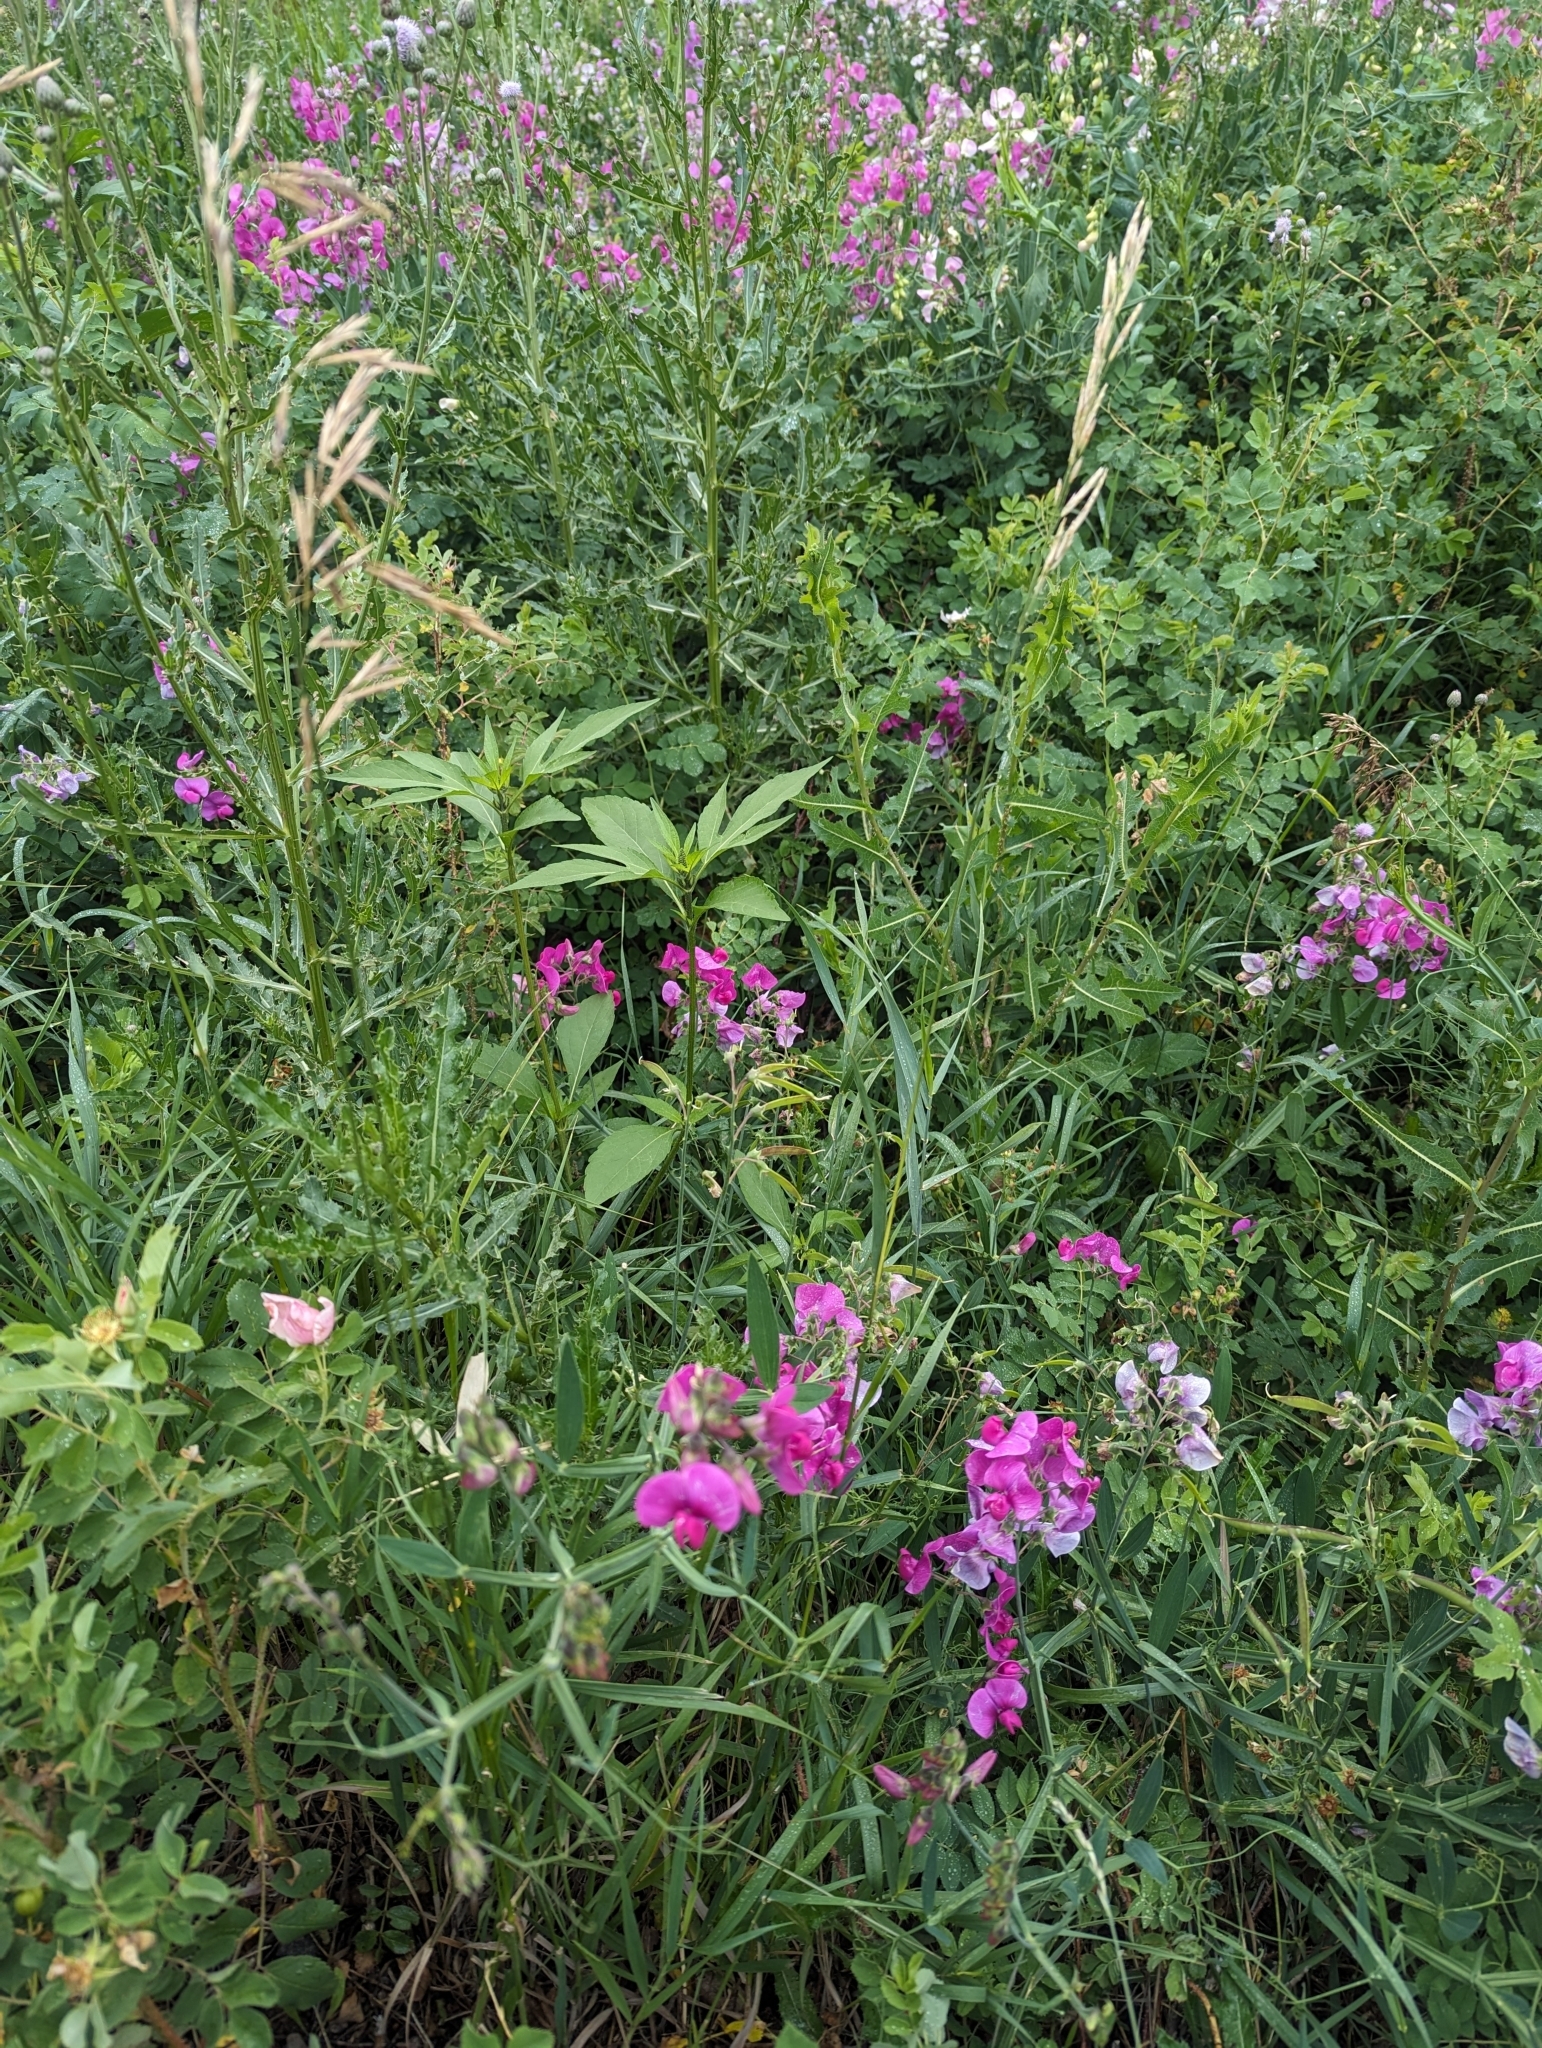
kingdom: Plantae
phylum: Tracheophyta
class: Magnoliopsida
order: Fabales
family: Fabaceae
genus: Lathyrus
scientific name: Lathyrus latifolius
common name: Perennial pea
